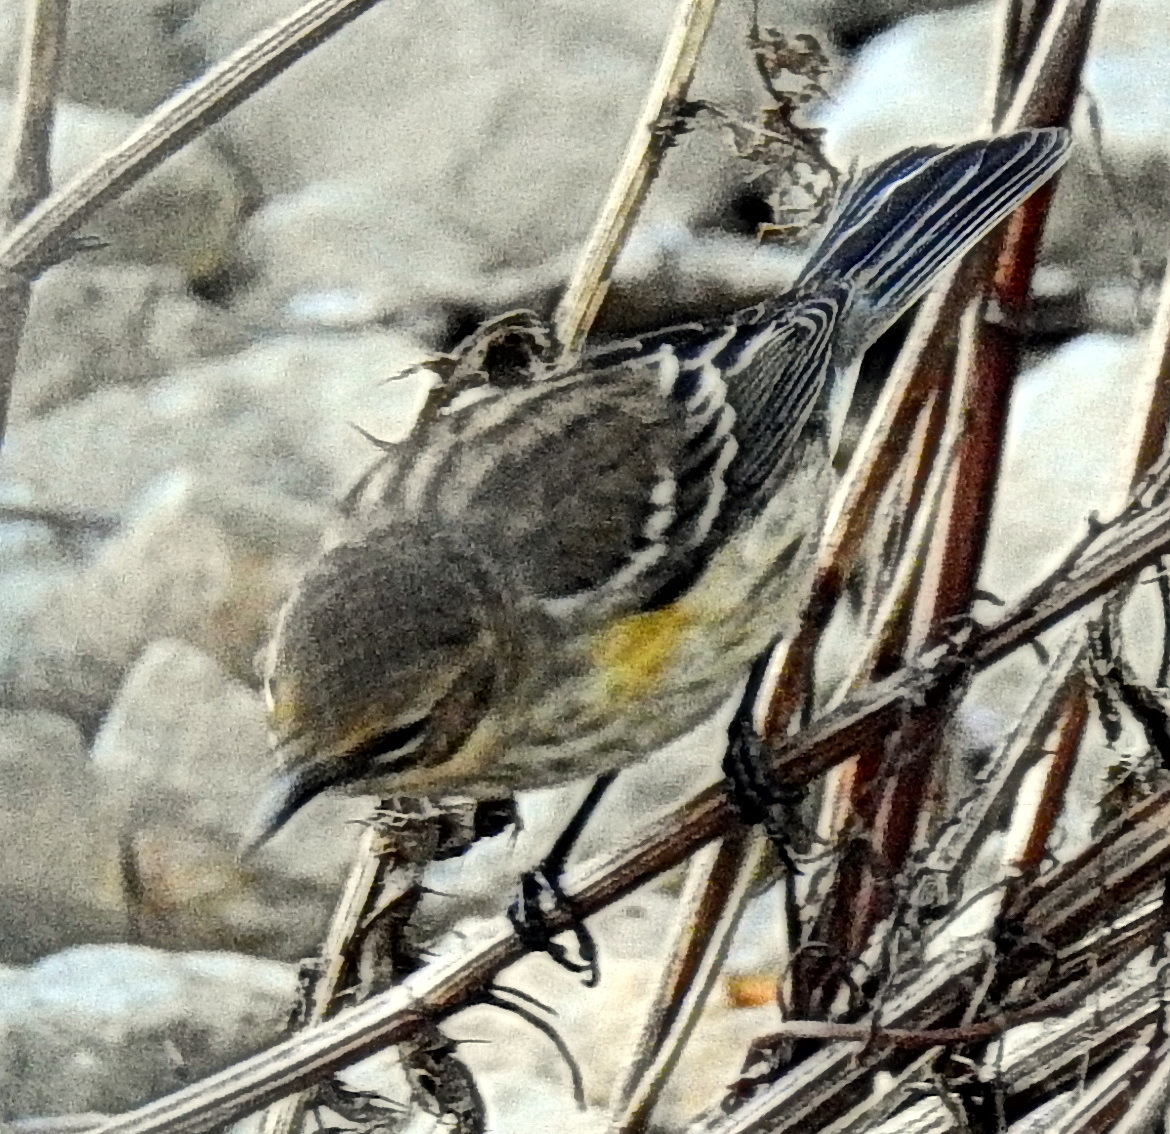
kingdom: Animalia
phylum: Chordata
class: Aves
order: Passeriformes
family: Parulidae
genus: Setophaga
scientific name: Setophaga coronata
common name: Myrtle warbler
